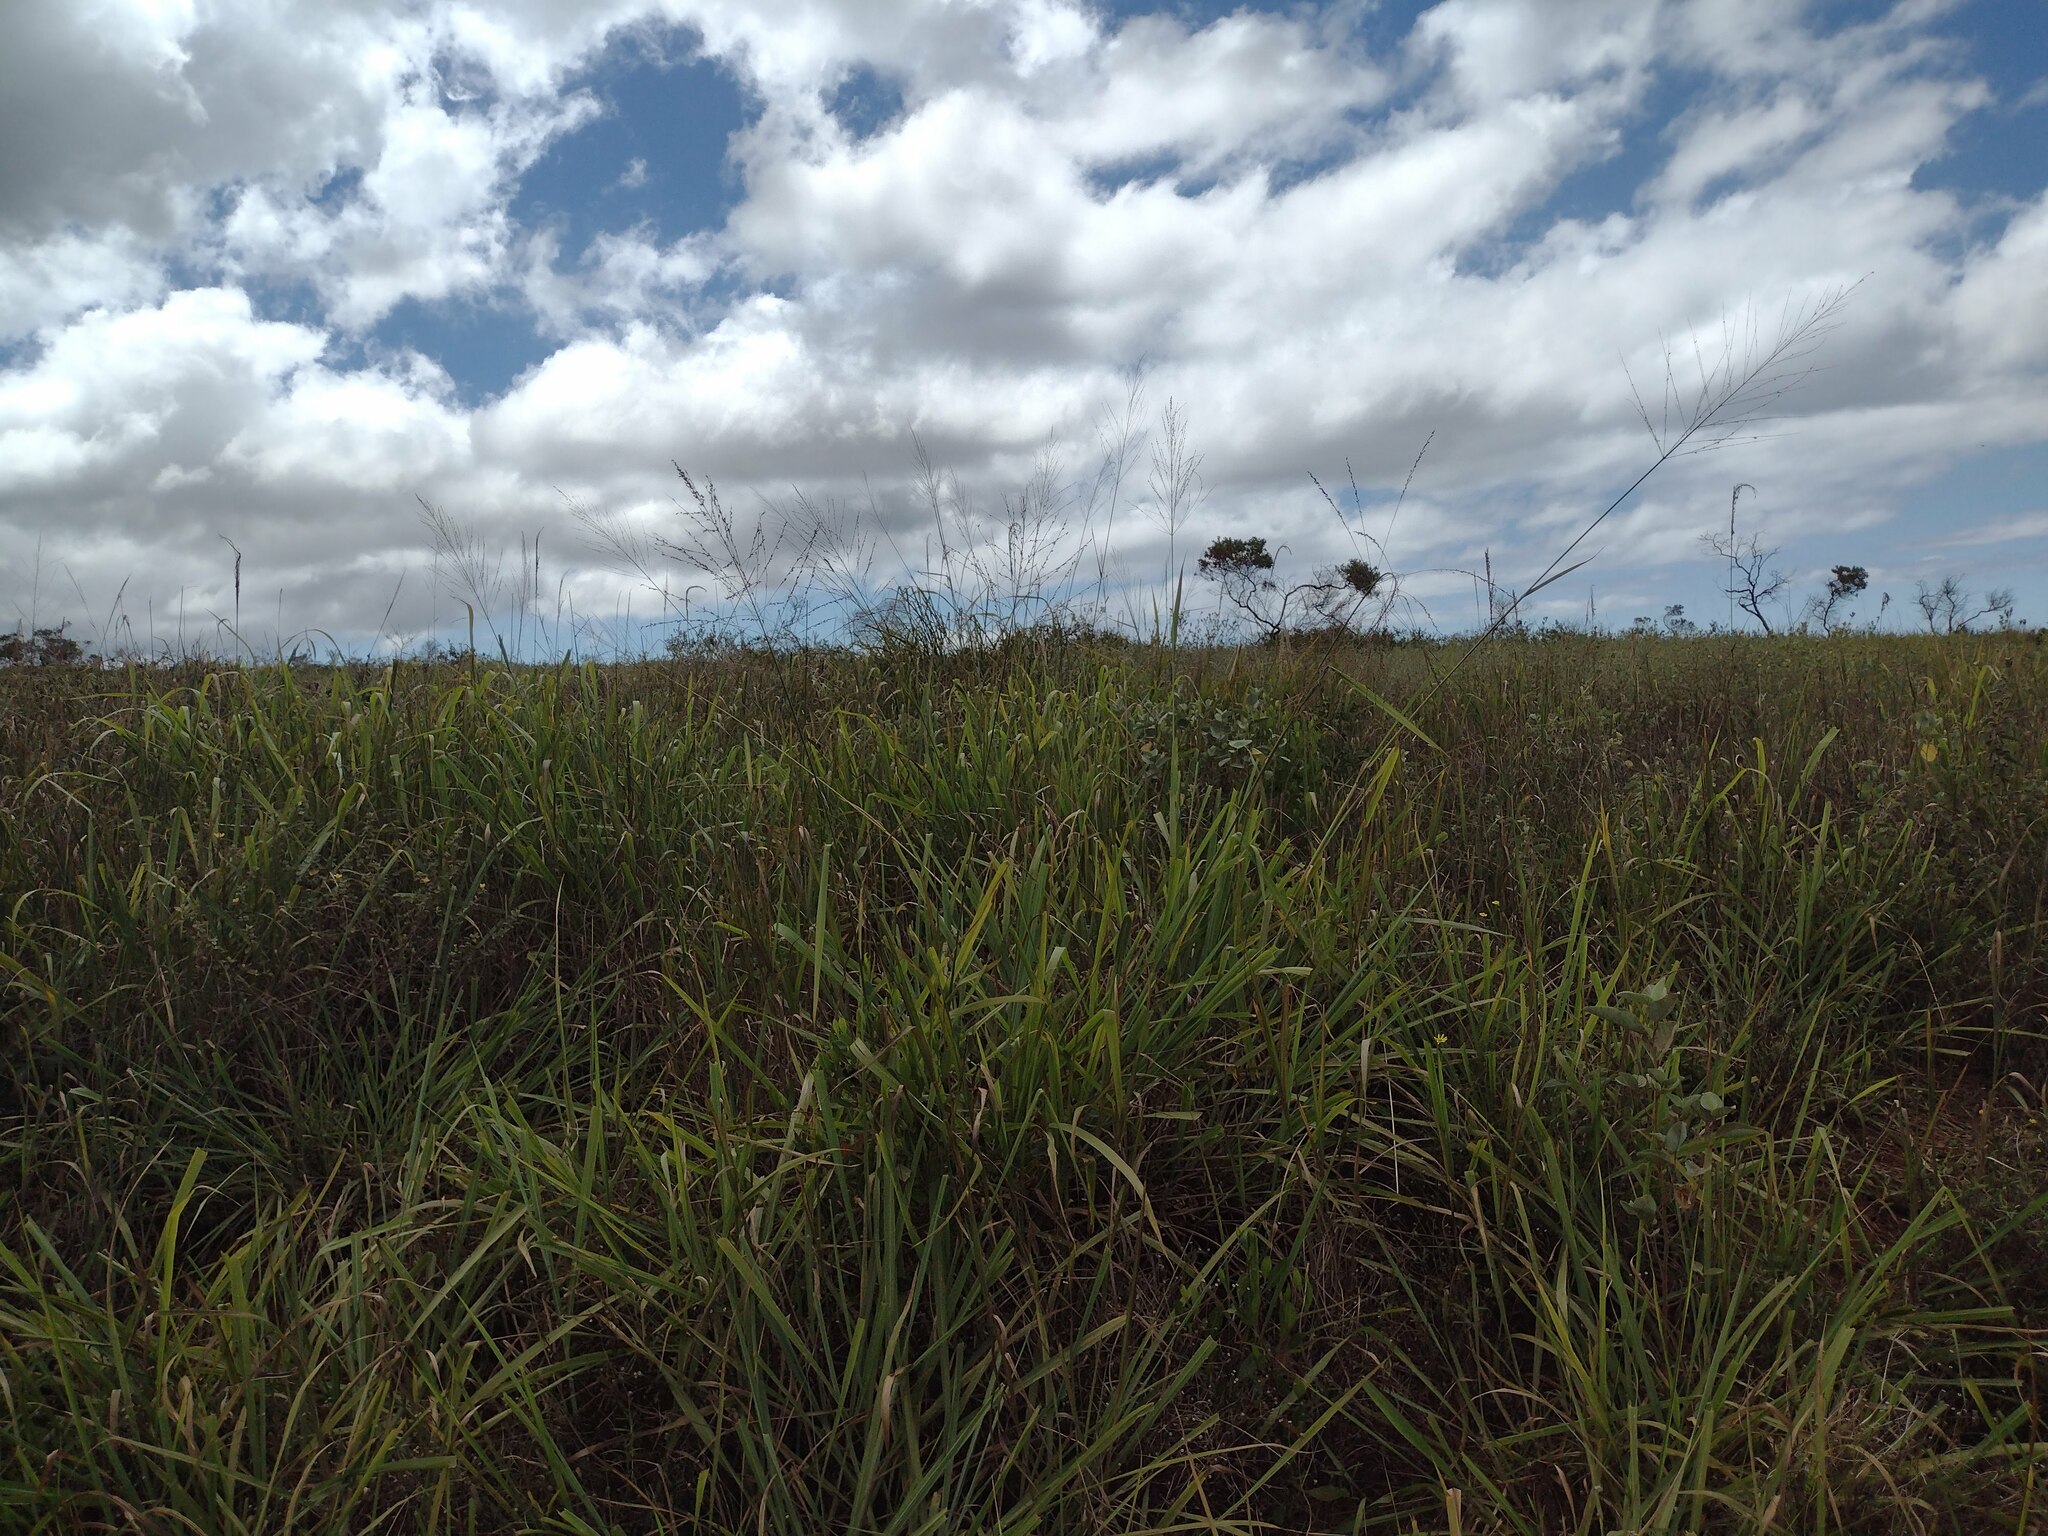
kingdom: Plantae
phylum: Tracheophyta
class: Liliopsida
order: Poales
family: Poaceae
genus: Megathyrsus
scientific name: Megathyrsus maximus
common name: Guineagrass
